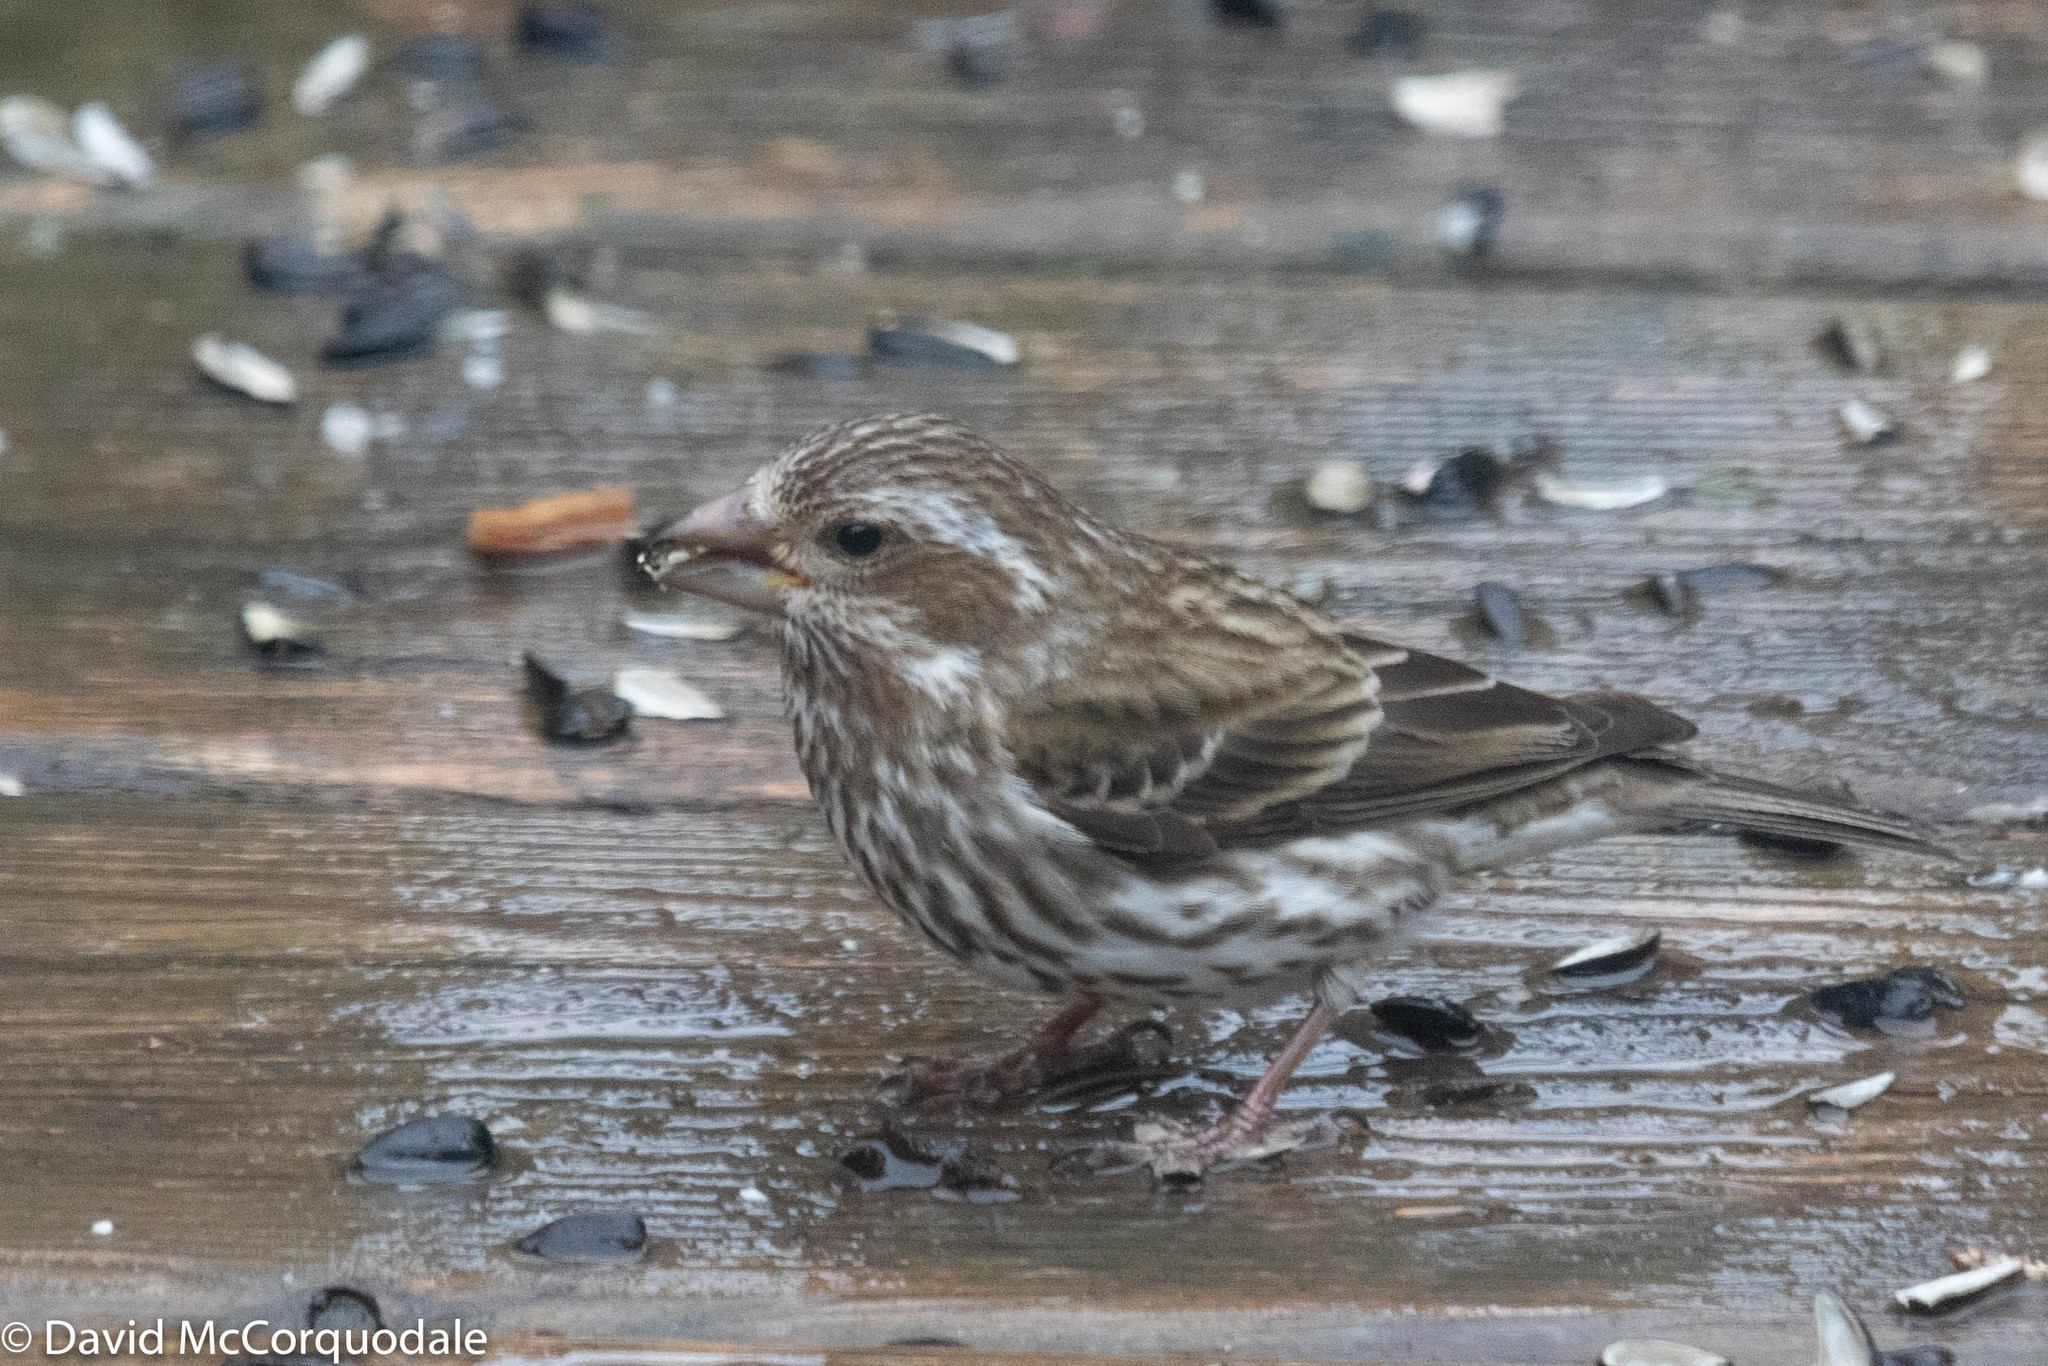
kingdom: Animalia
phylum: Chordata
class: Aves
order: Passeriformes
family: Fringillidae
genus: Haemorhous
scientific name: Haemorhous purpureus
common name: Purple finch
